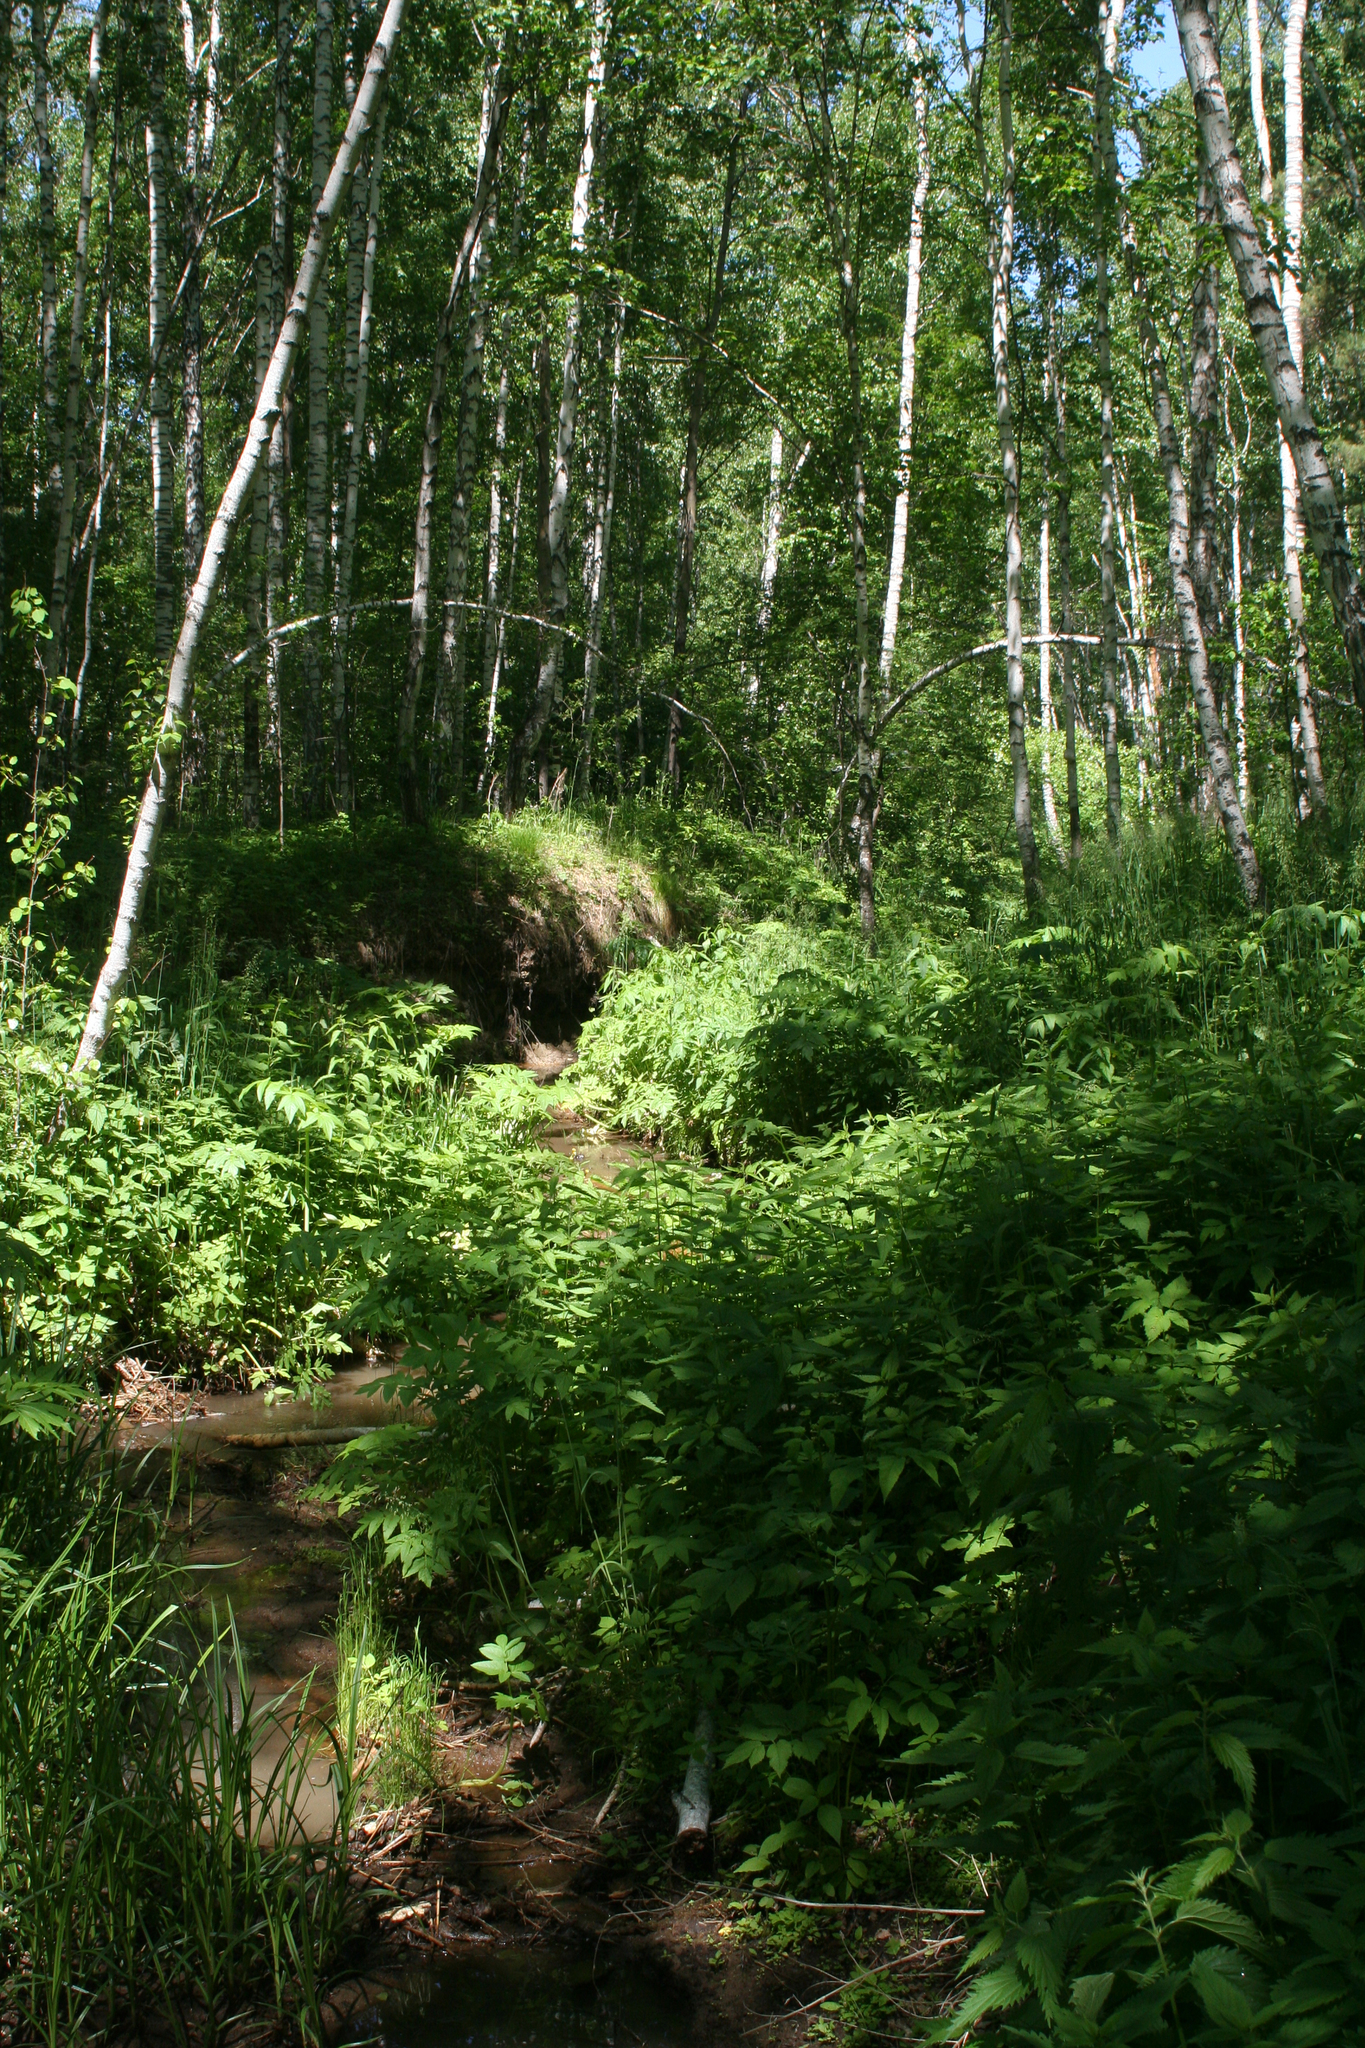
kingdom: Plantae
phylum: Tracheophyta
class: Magnoliopsida
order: Fagales
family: Betulaceae
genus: Betula
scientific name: Betula pubescens
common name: Downy birch
